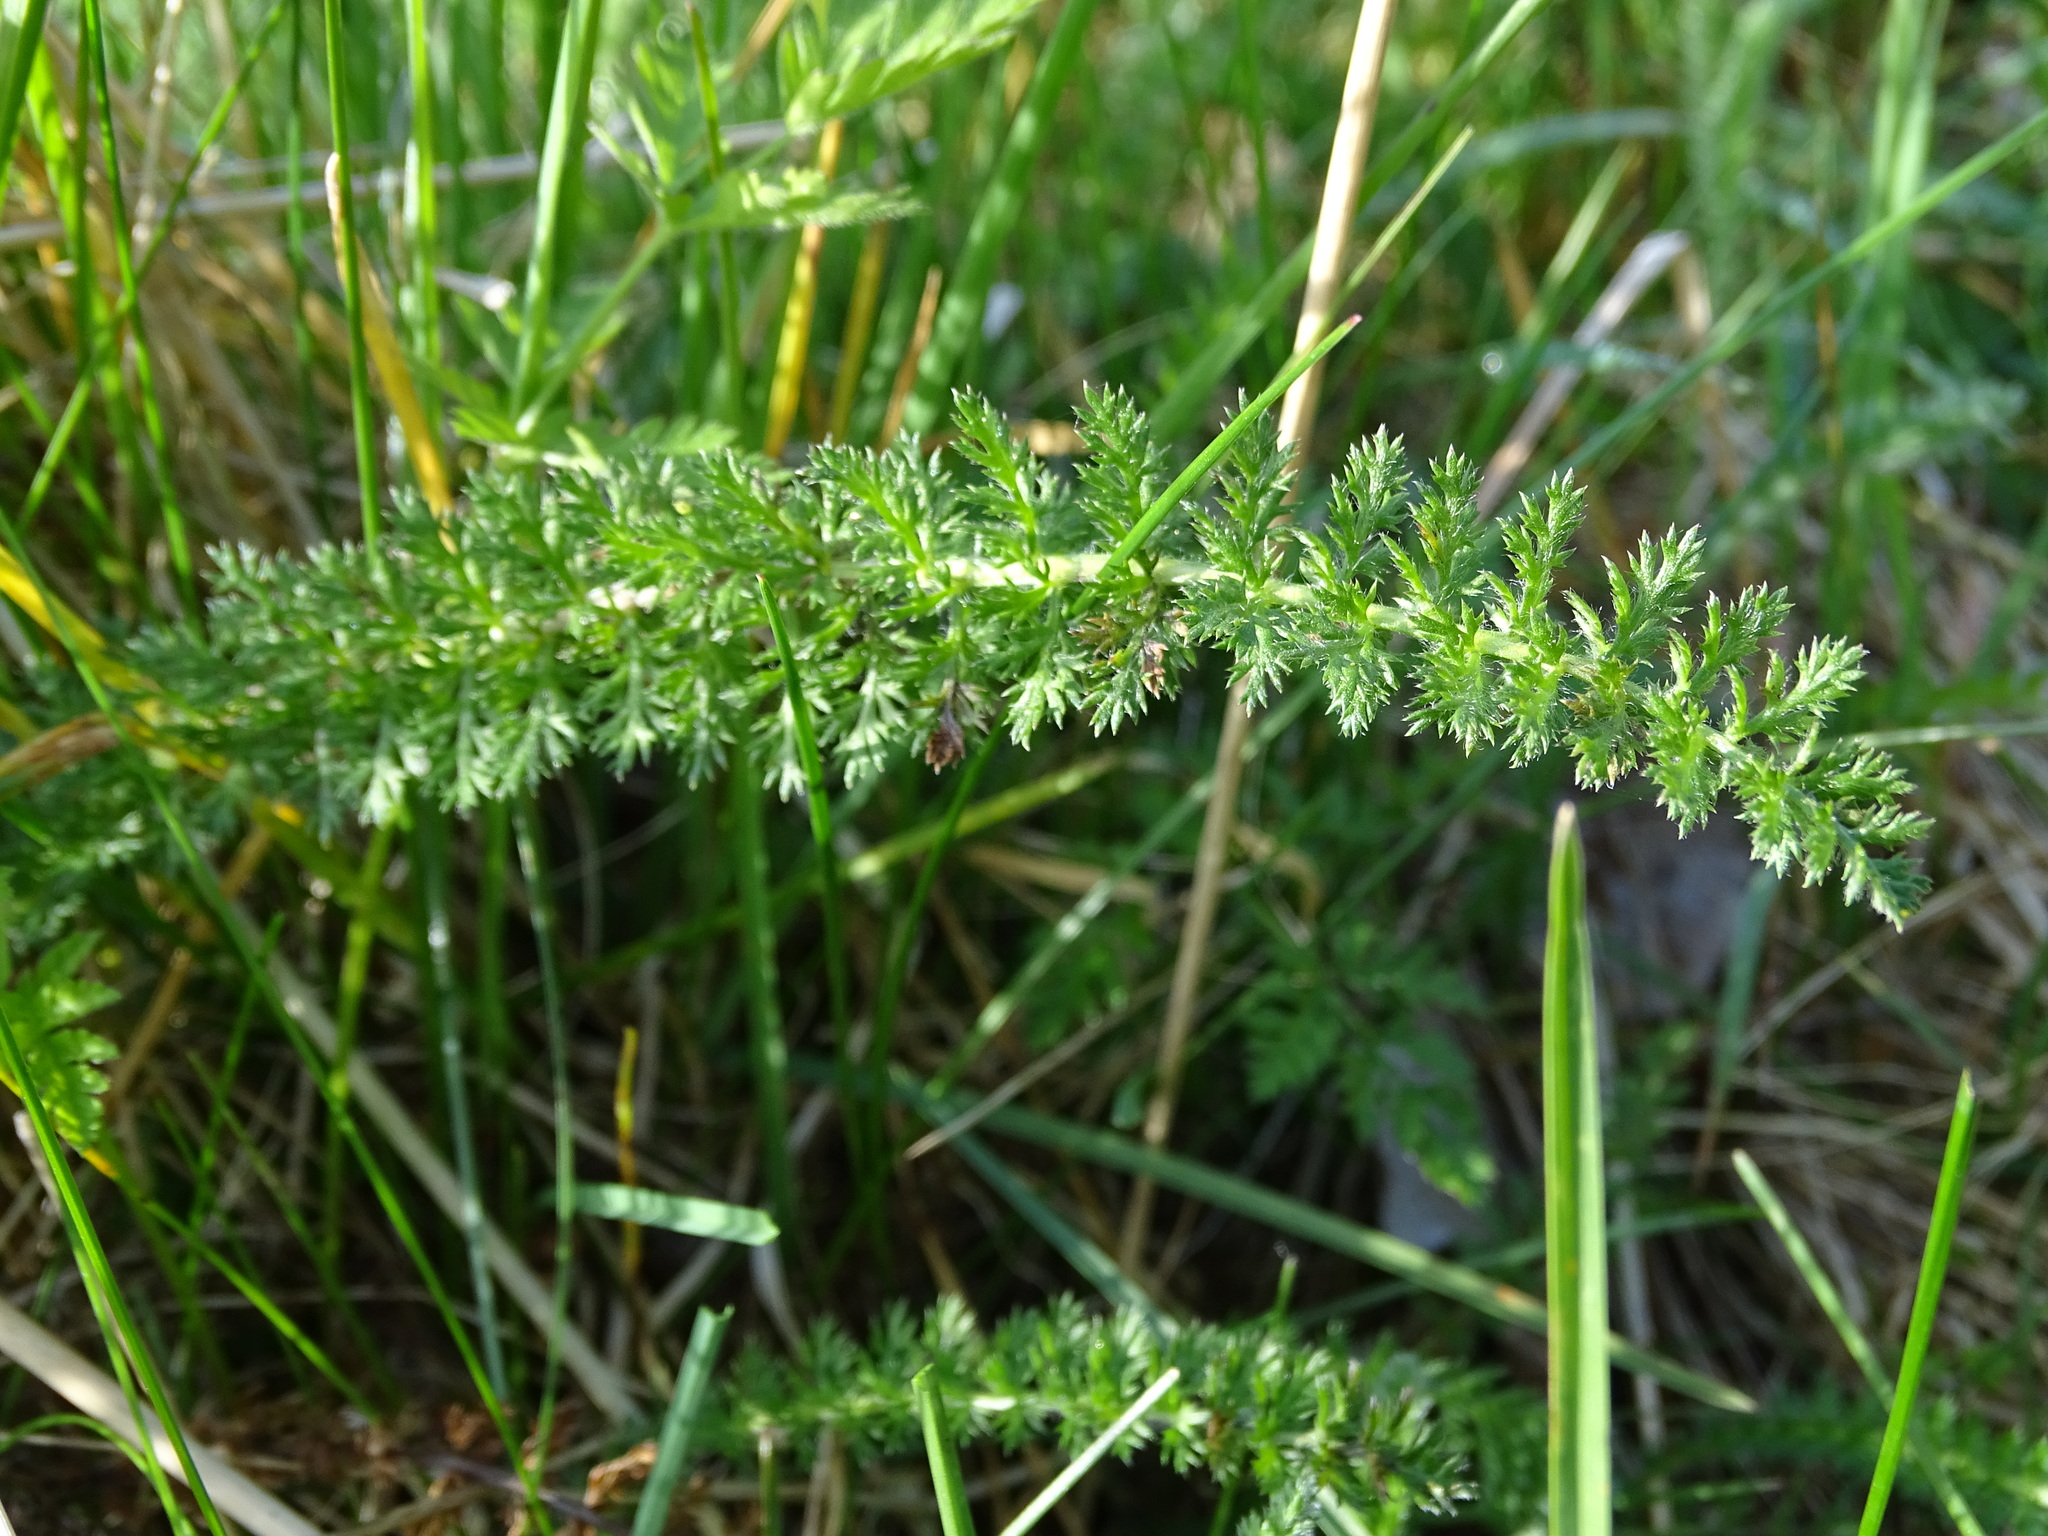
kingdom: Plantae
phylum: Tracheophyta
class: Magnoliopsida
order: Asterales
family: Asteraceae
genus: Achillea
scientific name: Achillea millefolium
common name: Yarrow
